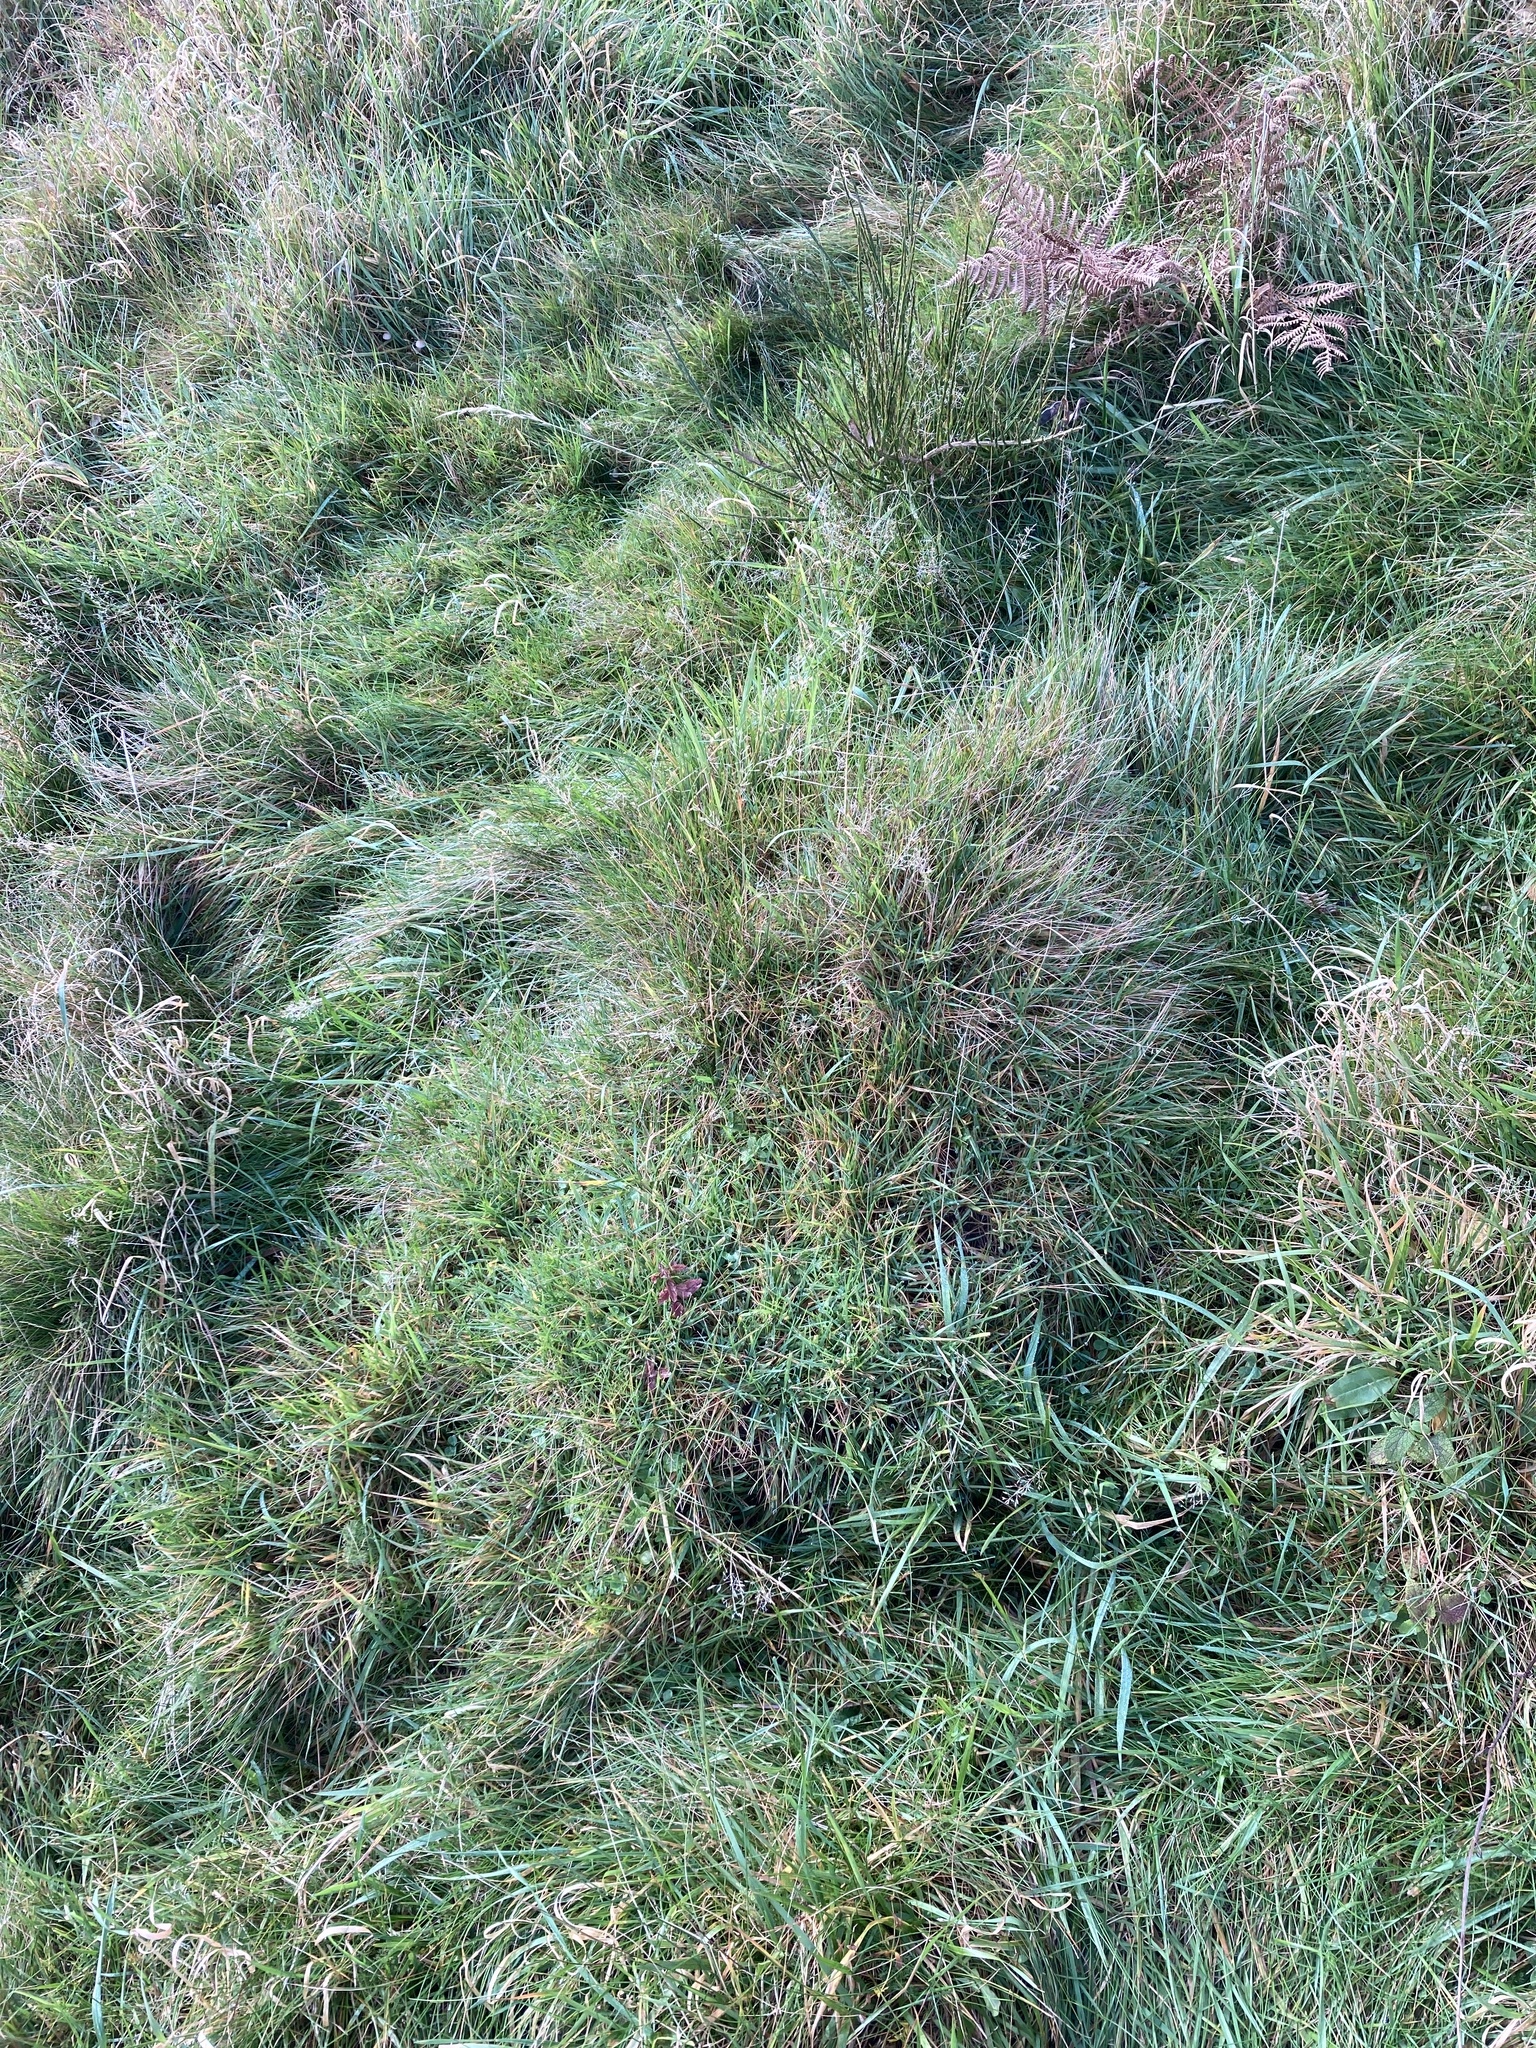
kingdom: Animalia
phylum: Arthropoda
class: Insecta
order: Hymenoptera
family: Formicidae
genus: Lasius
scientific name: Lasius flavus
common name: Blond field ant
